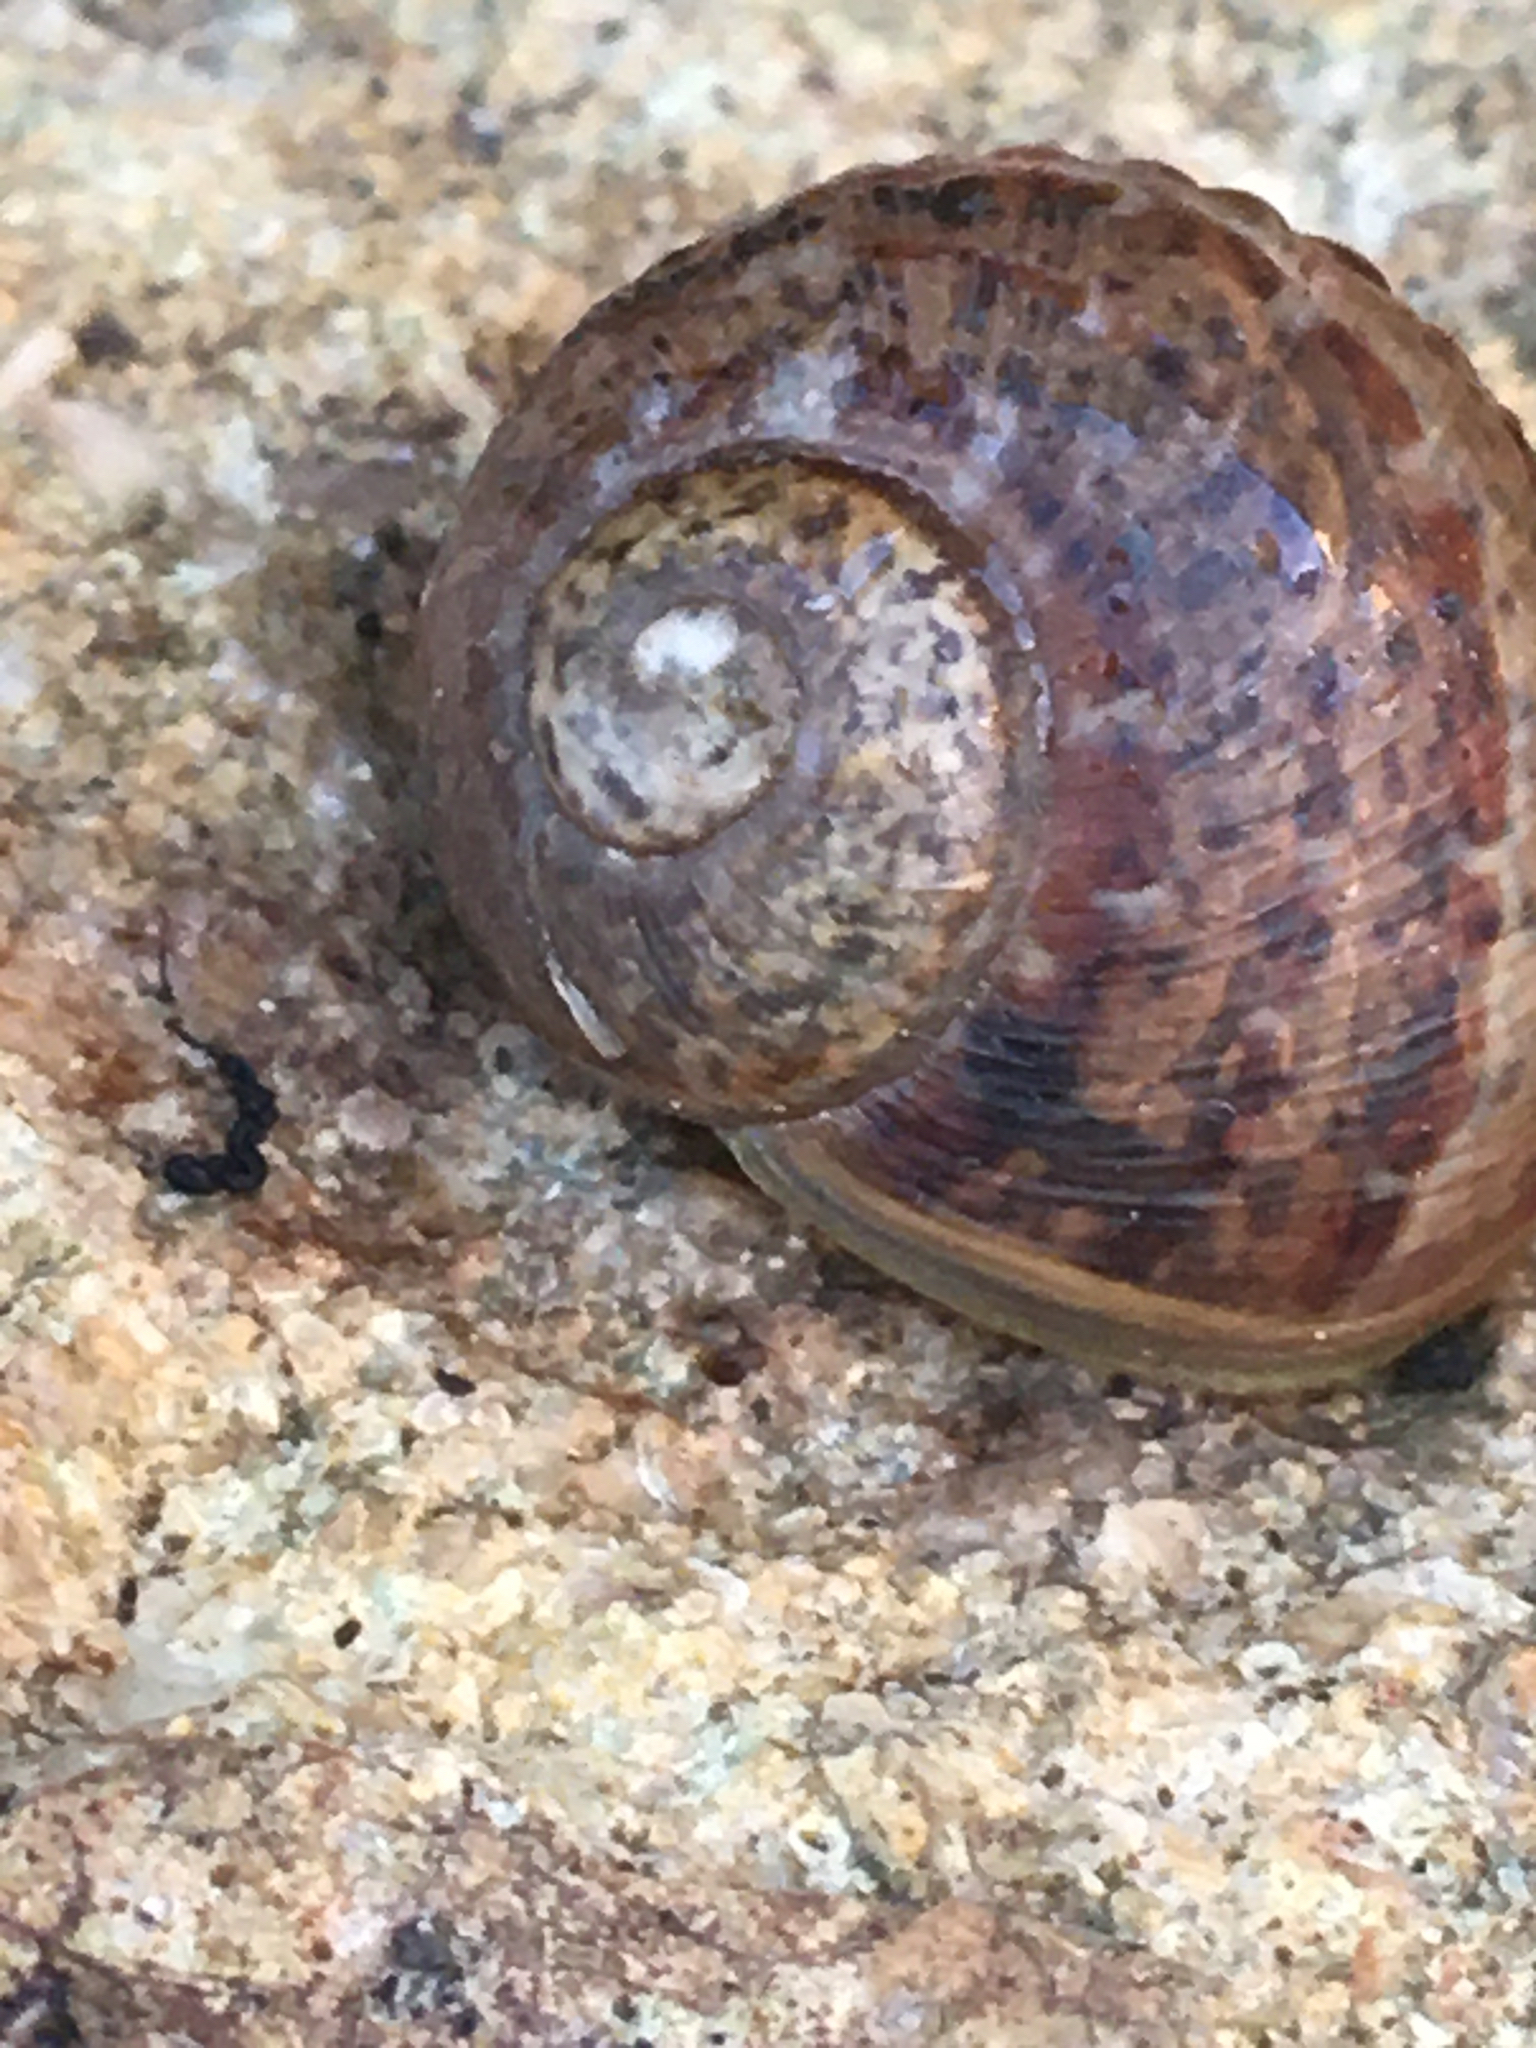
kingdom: Animalia
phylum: Mollusca
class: Gastropoda
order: Stylommatophora
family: Helicidae
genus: Cornu
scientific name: Cornu aspersum
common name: Brown garden snail
